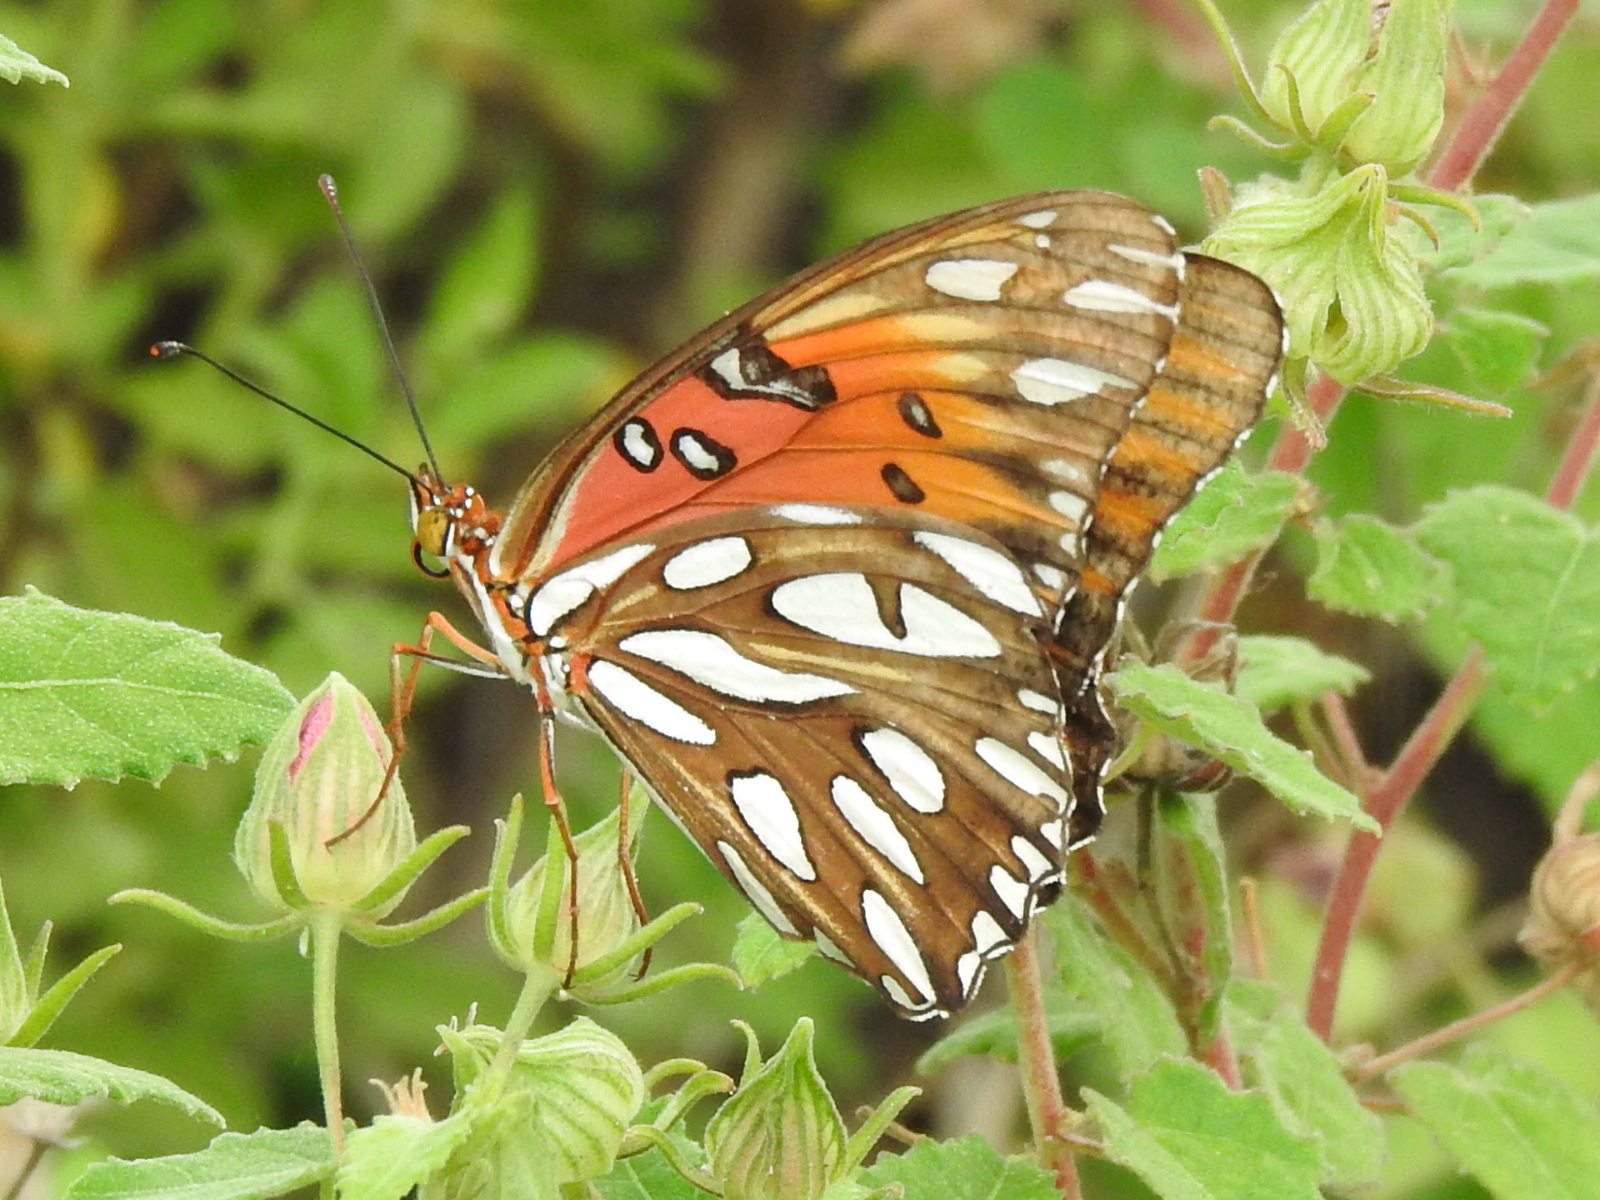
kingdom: Animalia
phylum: Arthropoda
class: Insecta
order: Lepidoptera
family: Nymphalidae
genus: Dione
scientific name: Dione vanillae
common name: Gulf fritillary
